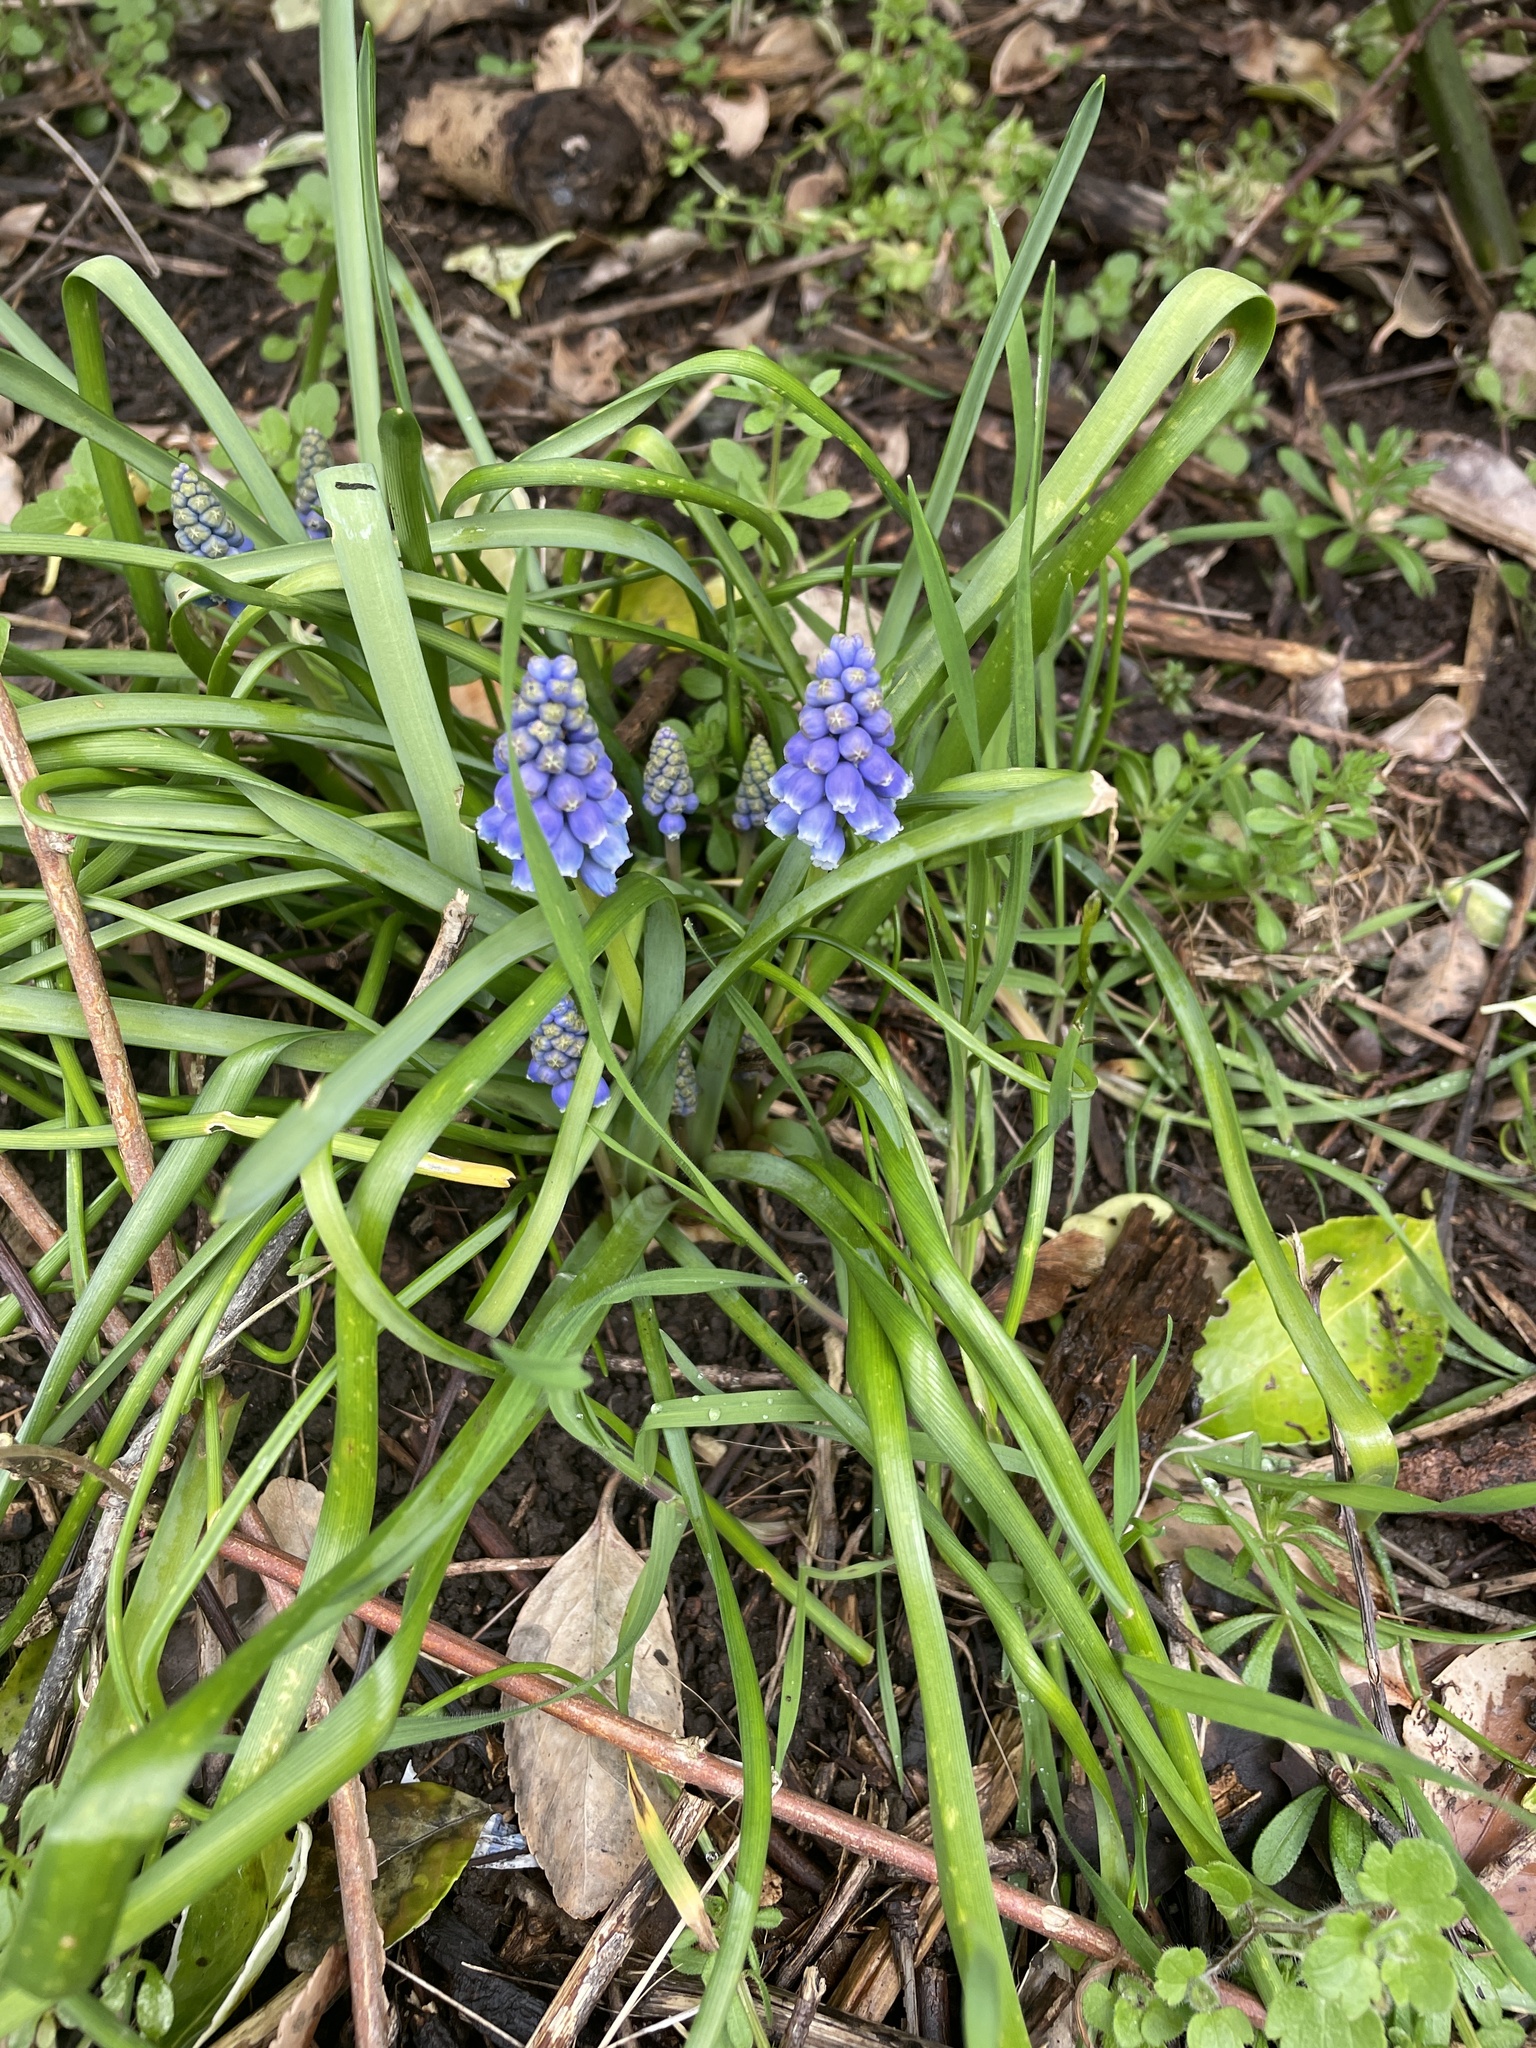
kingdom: Plantae
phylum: Tracheophyta
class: Liliopsida
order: Asparagales
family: Asparagaceae
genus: Muscari
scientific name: Muscari armeniacum
